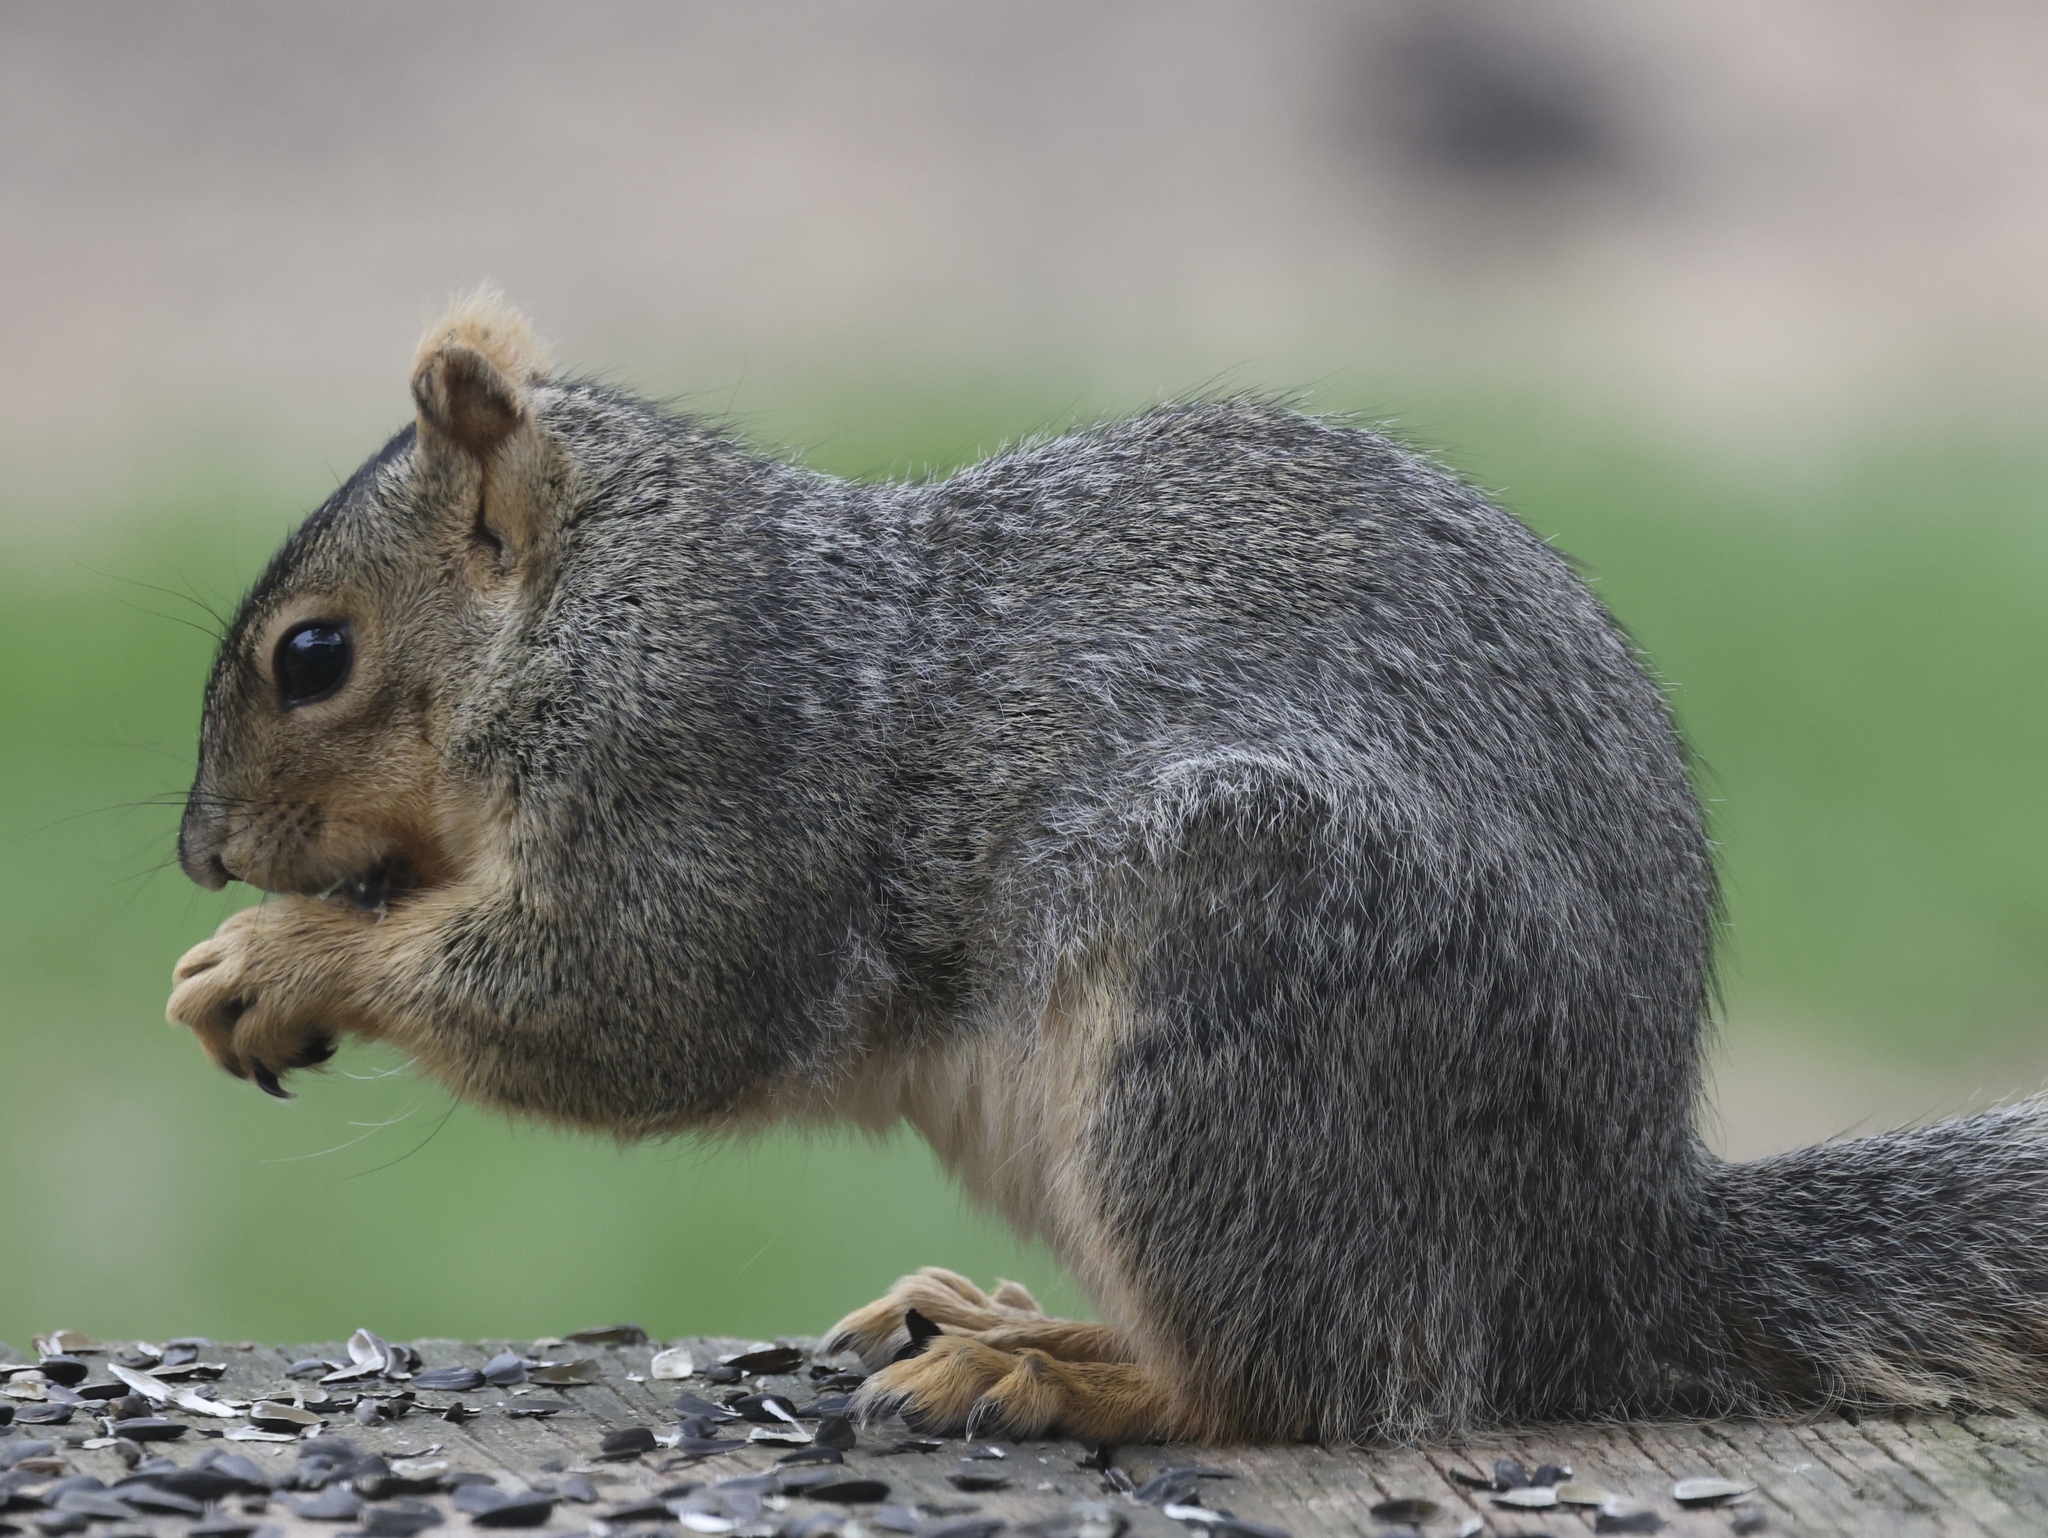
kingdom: Animalia
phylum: Chordata
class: Mammalia
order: Rodentia
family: Sciuridae
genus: Sciurus
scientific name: Sciurus niger
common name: Fox squirrel
